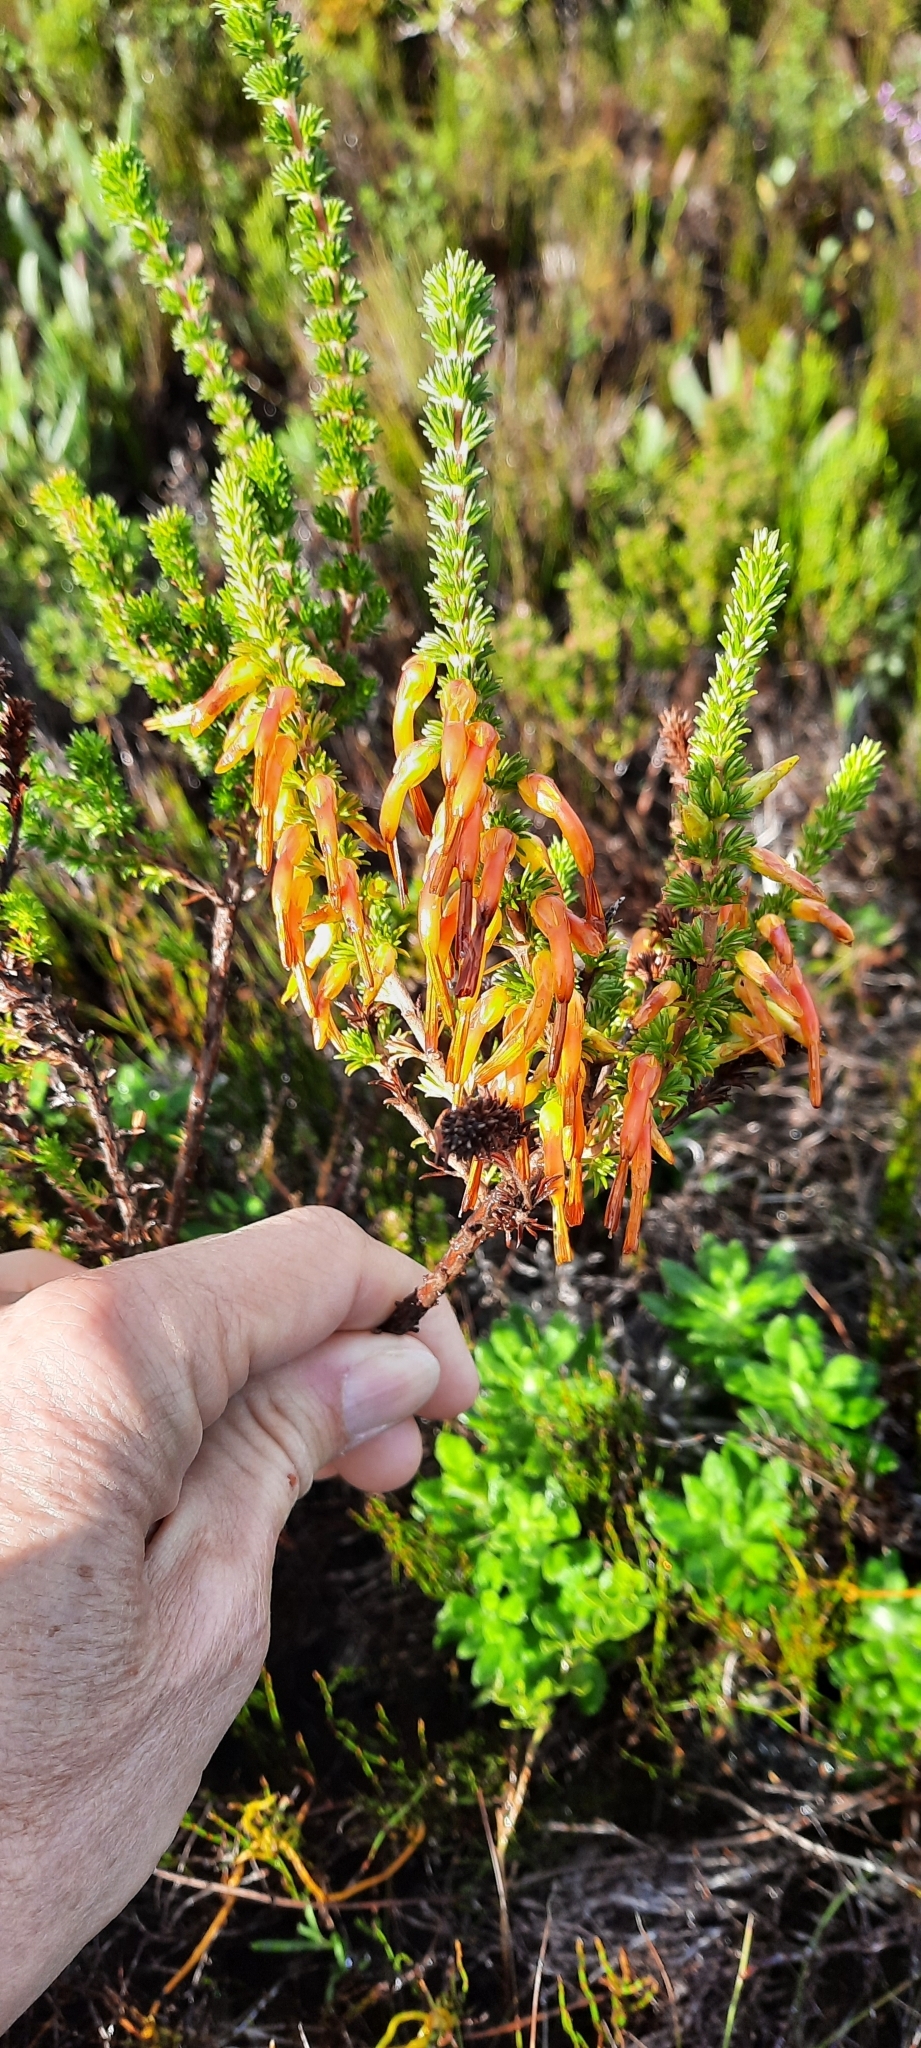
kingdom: Plantae
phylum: Tracheophyta
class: Magnoliopsida
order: Ericales
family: Ericaceae
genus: Erica
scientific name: Erica coccinea
